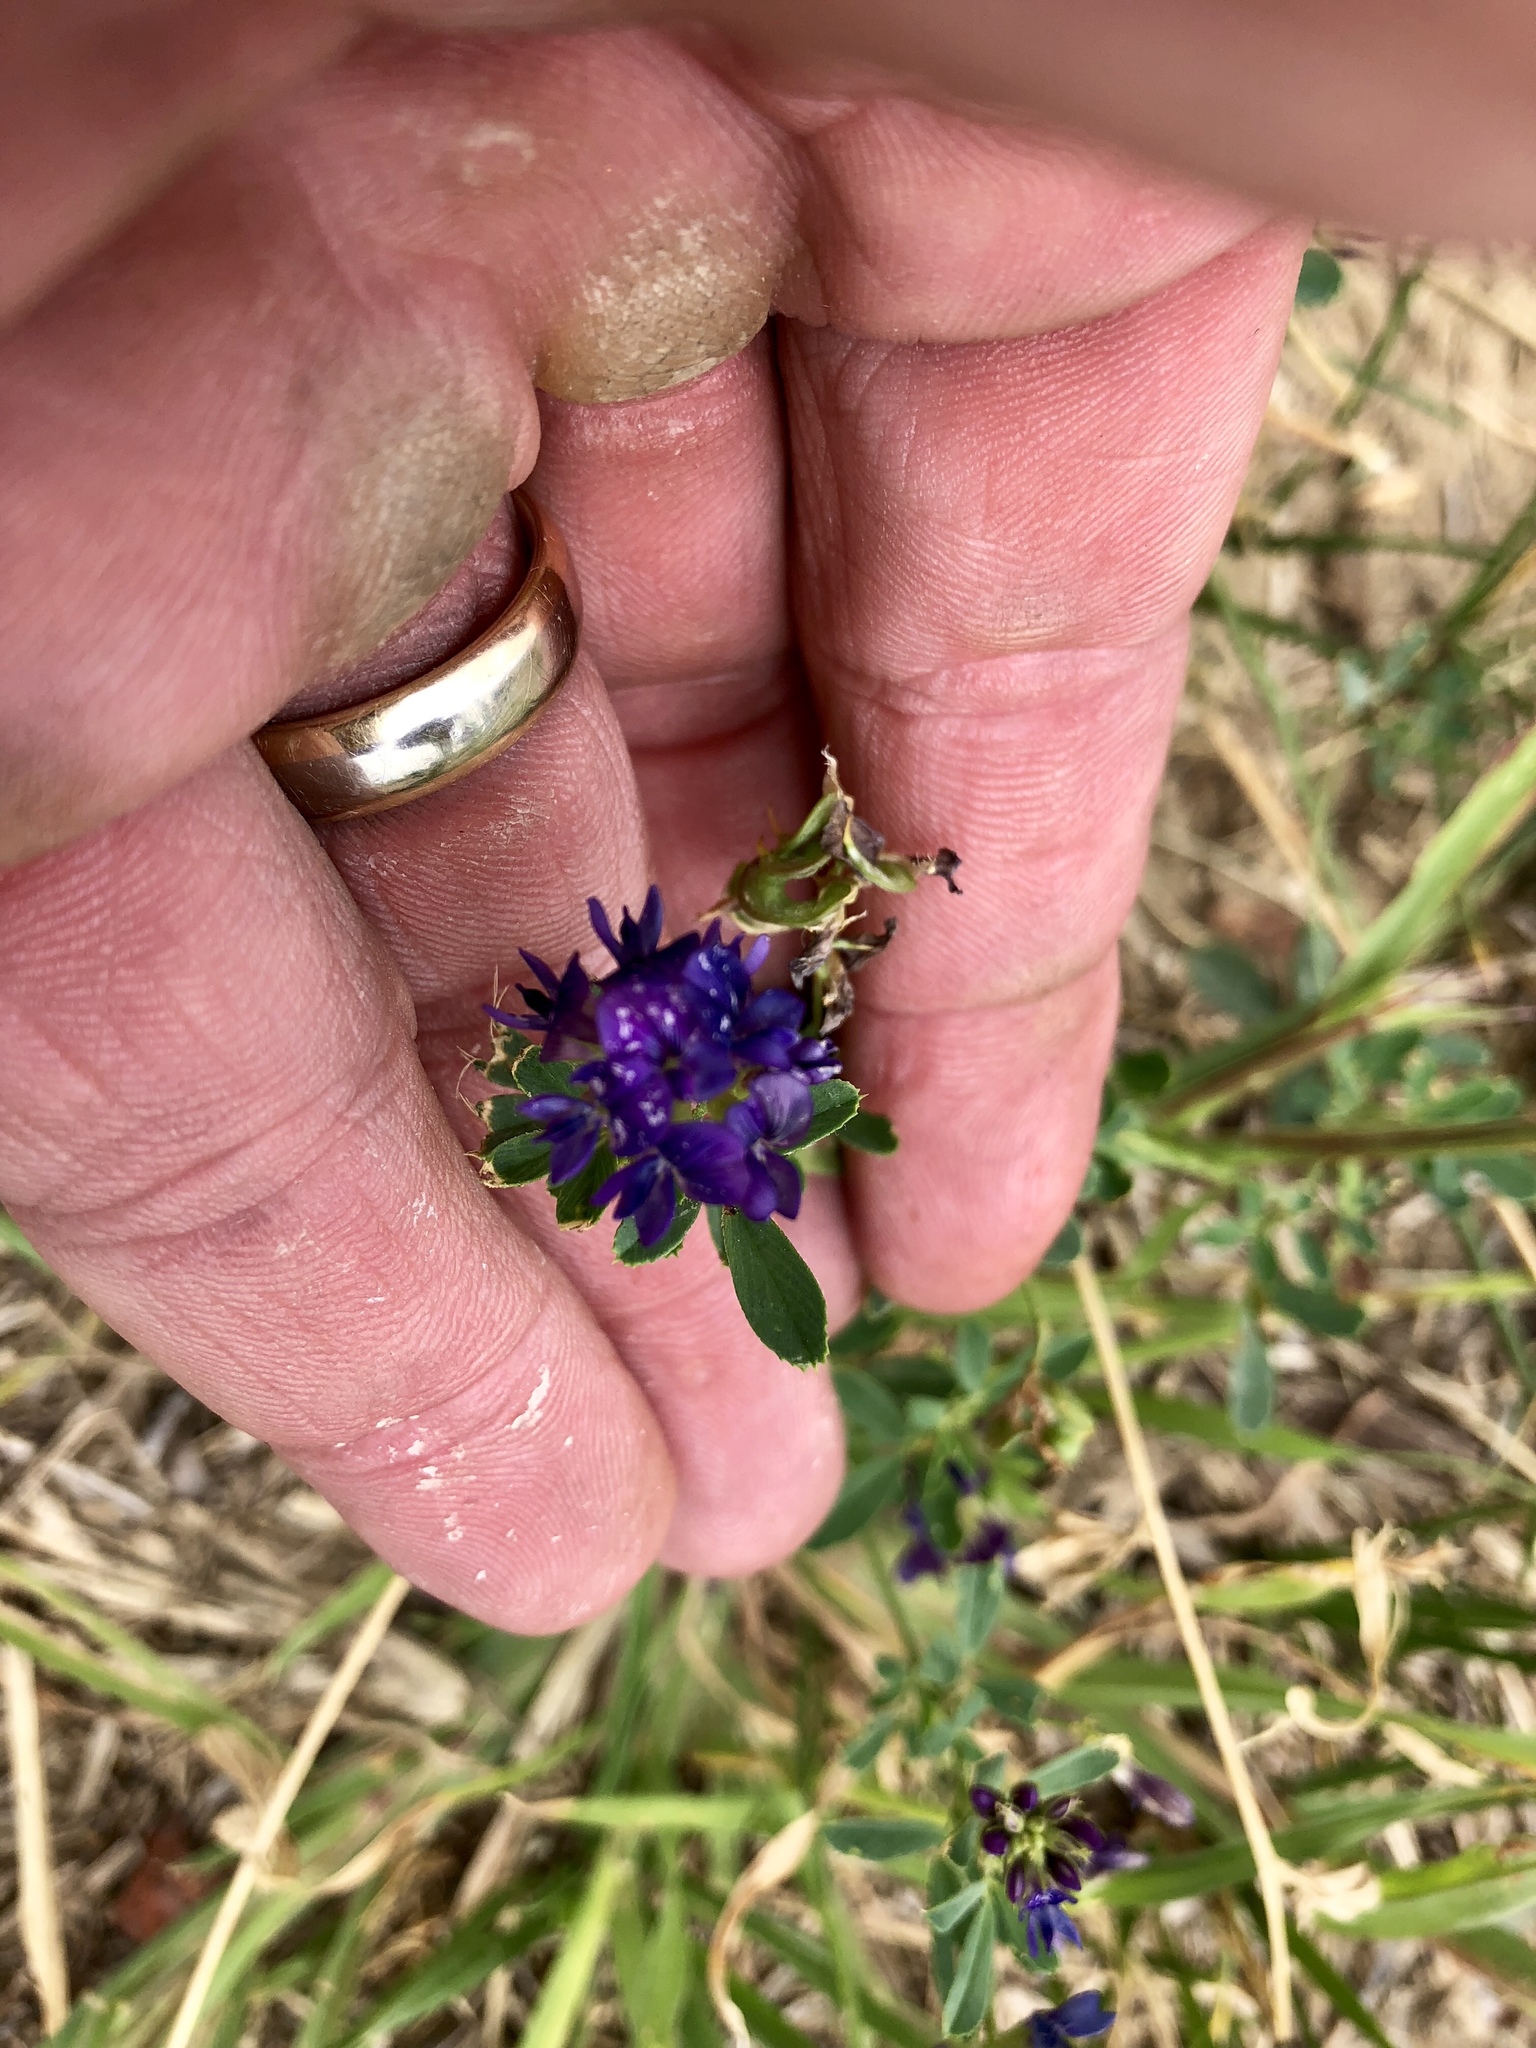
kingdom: Plantae
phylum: Tracheophyta
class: Magnoliopsida
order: Fabales
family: Fabaceae
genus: Medicago
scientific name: Medicago sativa
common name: Alfalfa
